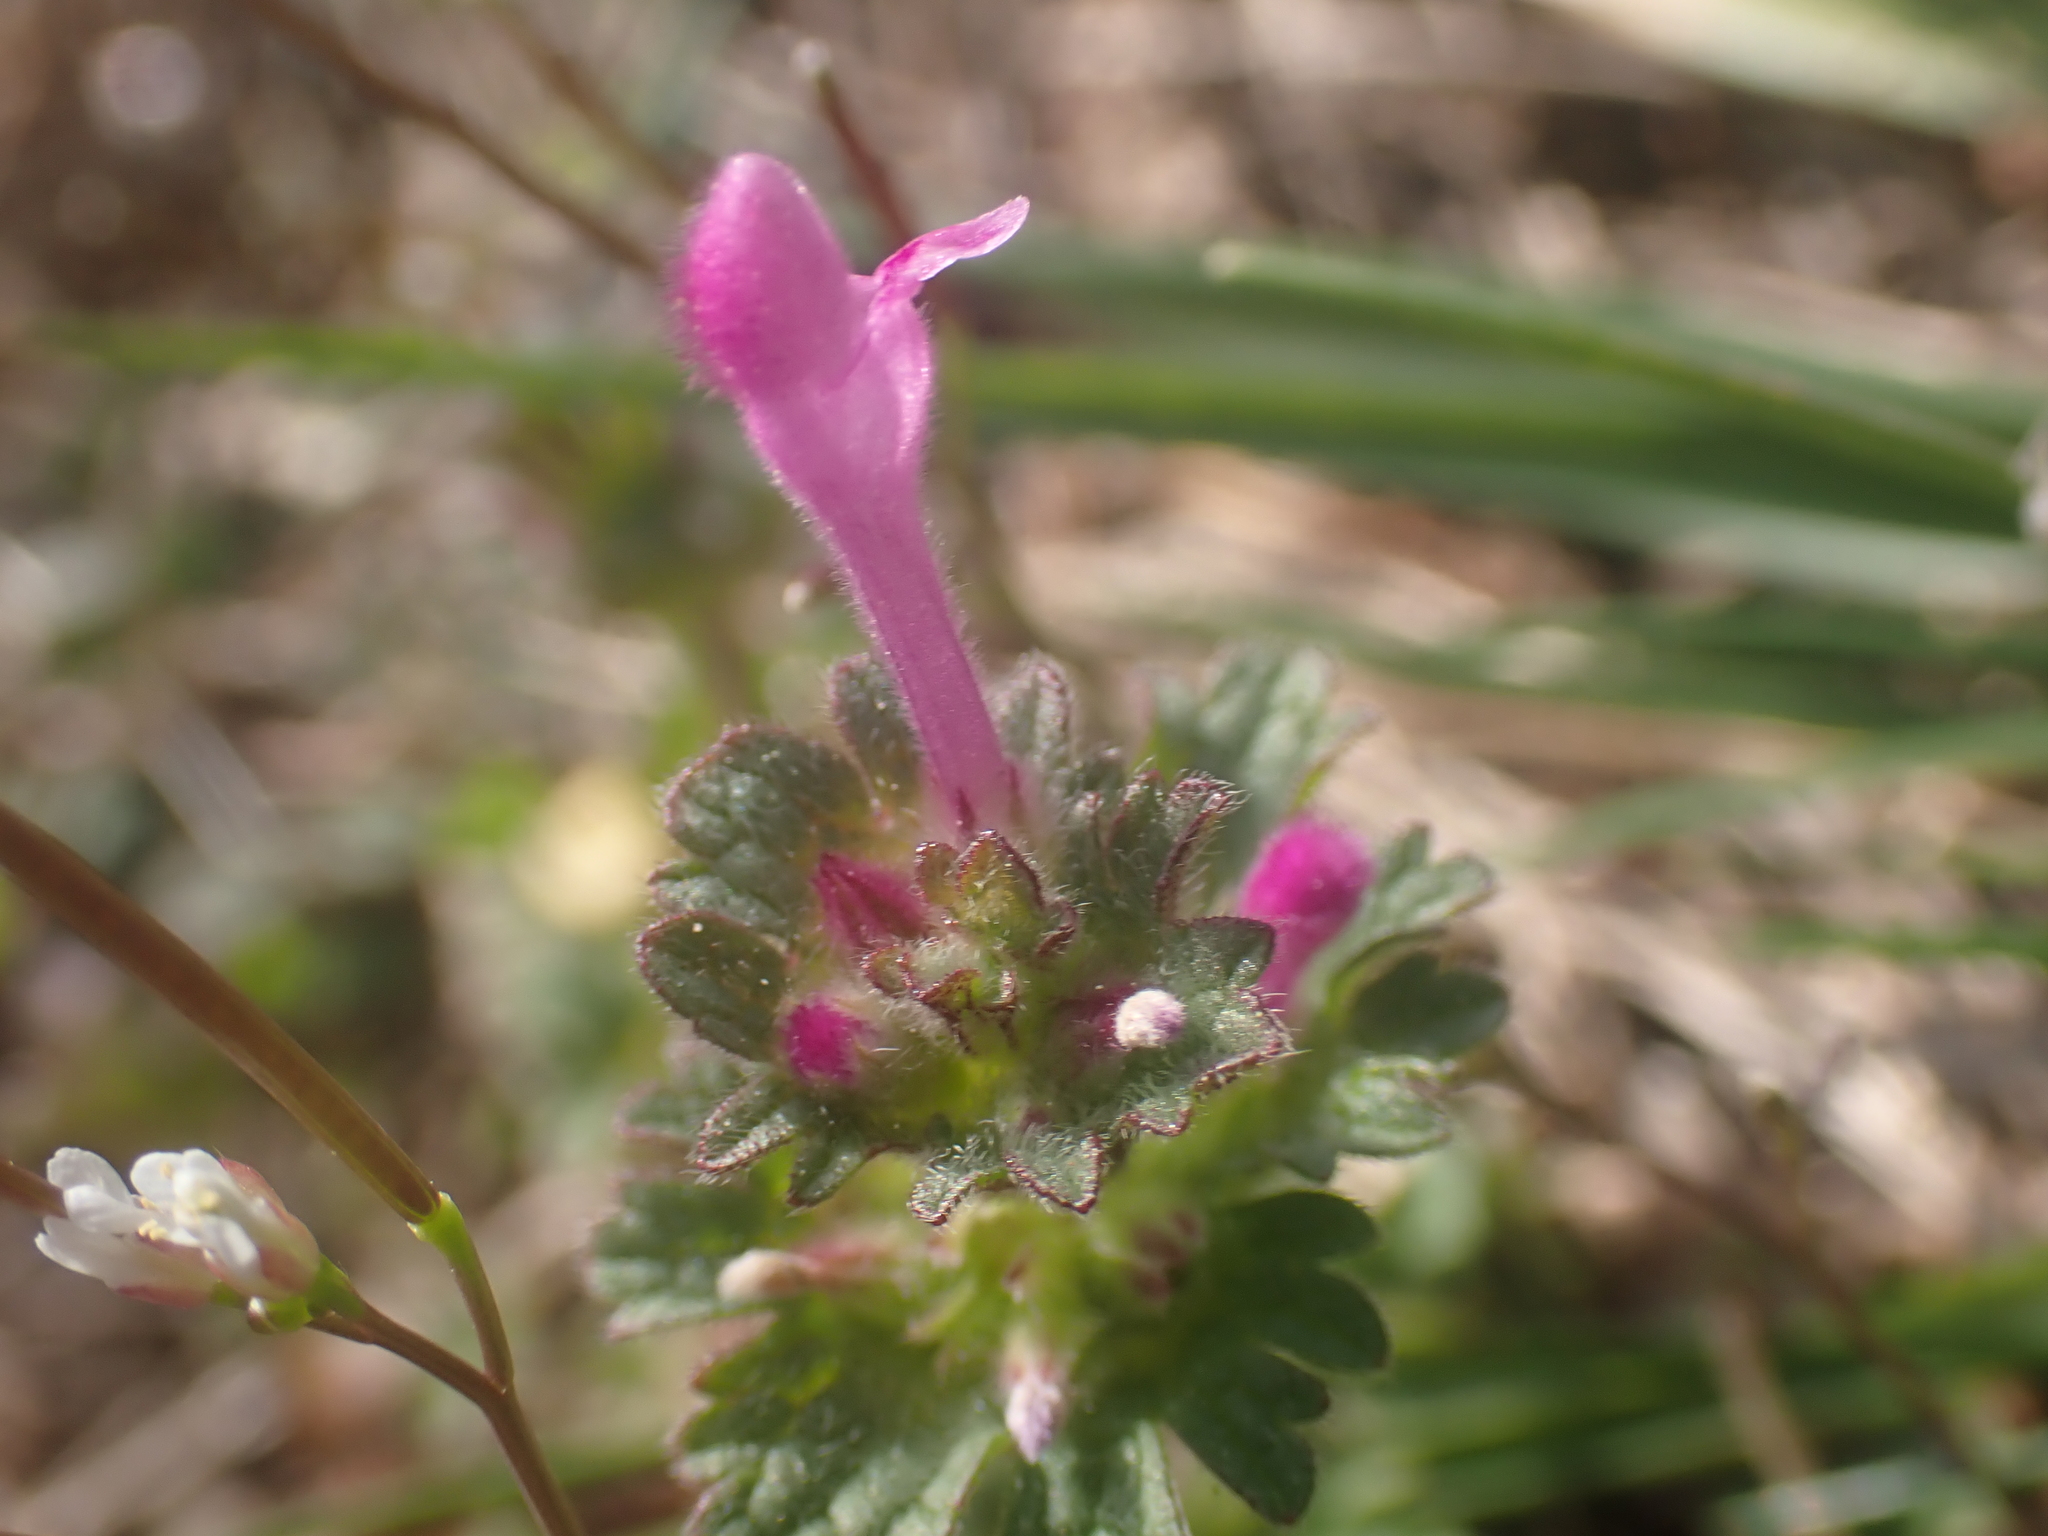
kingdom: Plantae
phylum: Tracheophyta
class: Magnoliopsida
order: Lamiales
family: Lamiaceae
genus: Lamium
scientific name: Lamium amplexicaule
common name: Henbit dead-nettle
